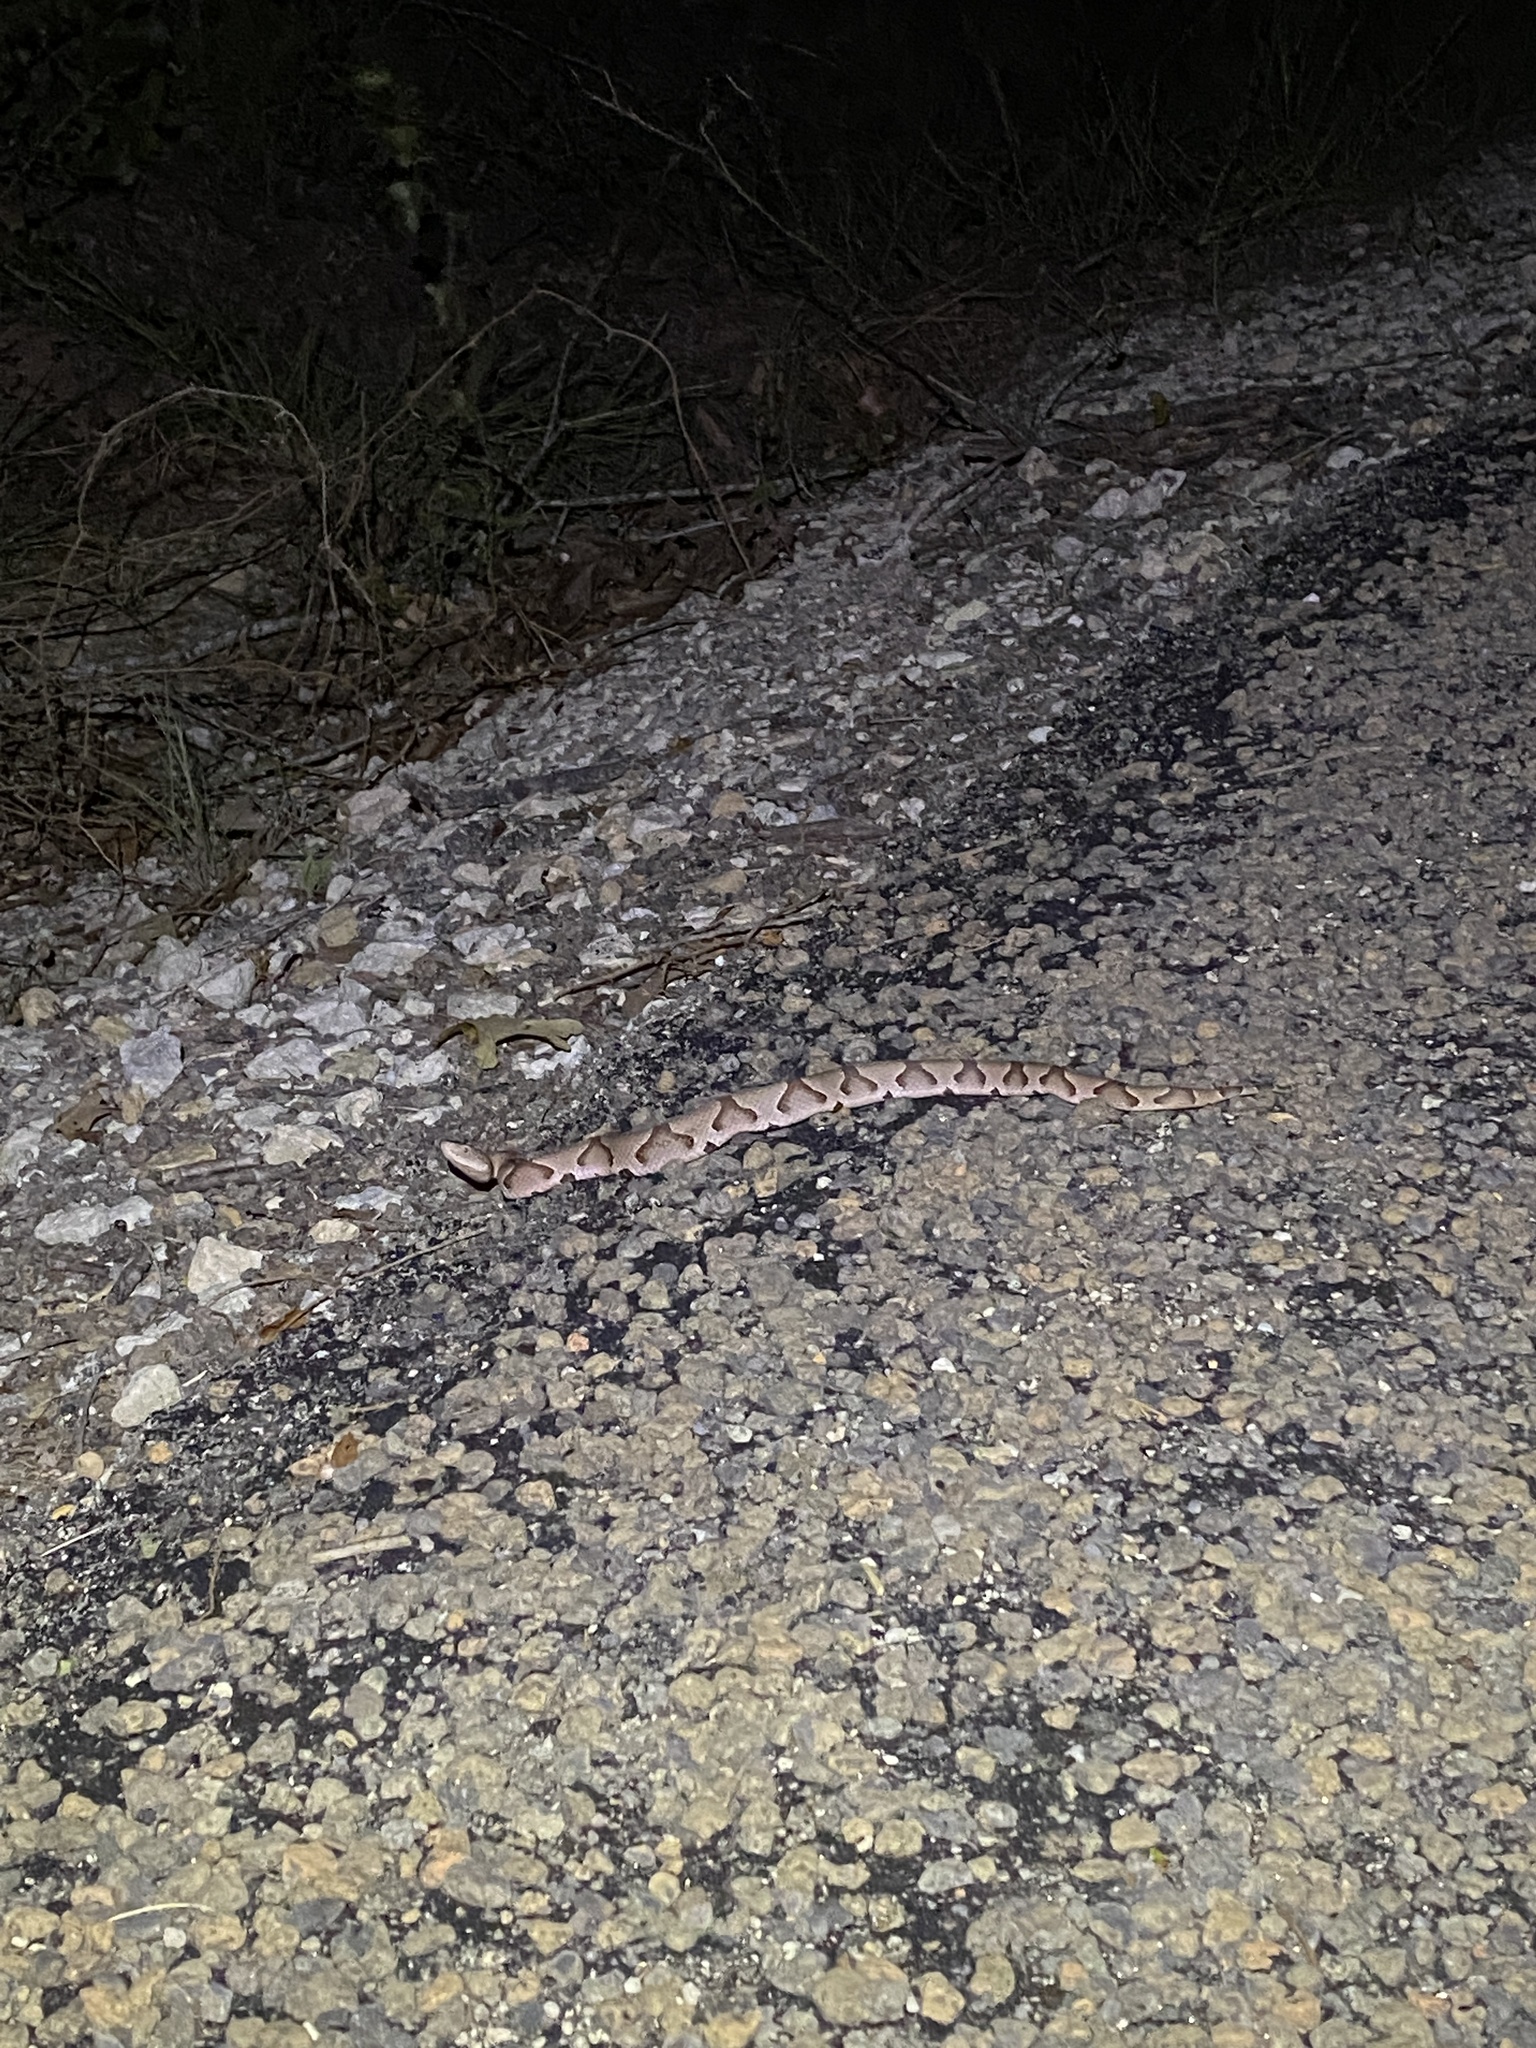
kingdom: Animalia
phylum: Chordata
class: Squamata
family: Viperidae
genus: Agkistrodon
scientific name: Agkistrodon contortrix
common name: Northern copperhead
